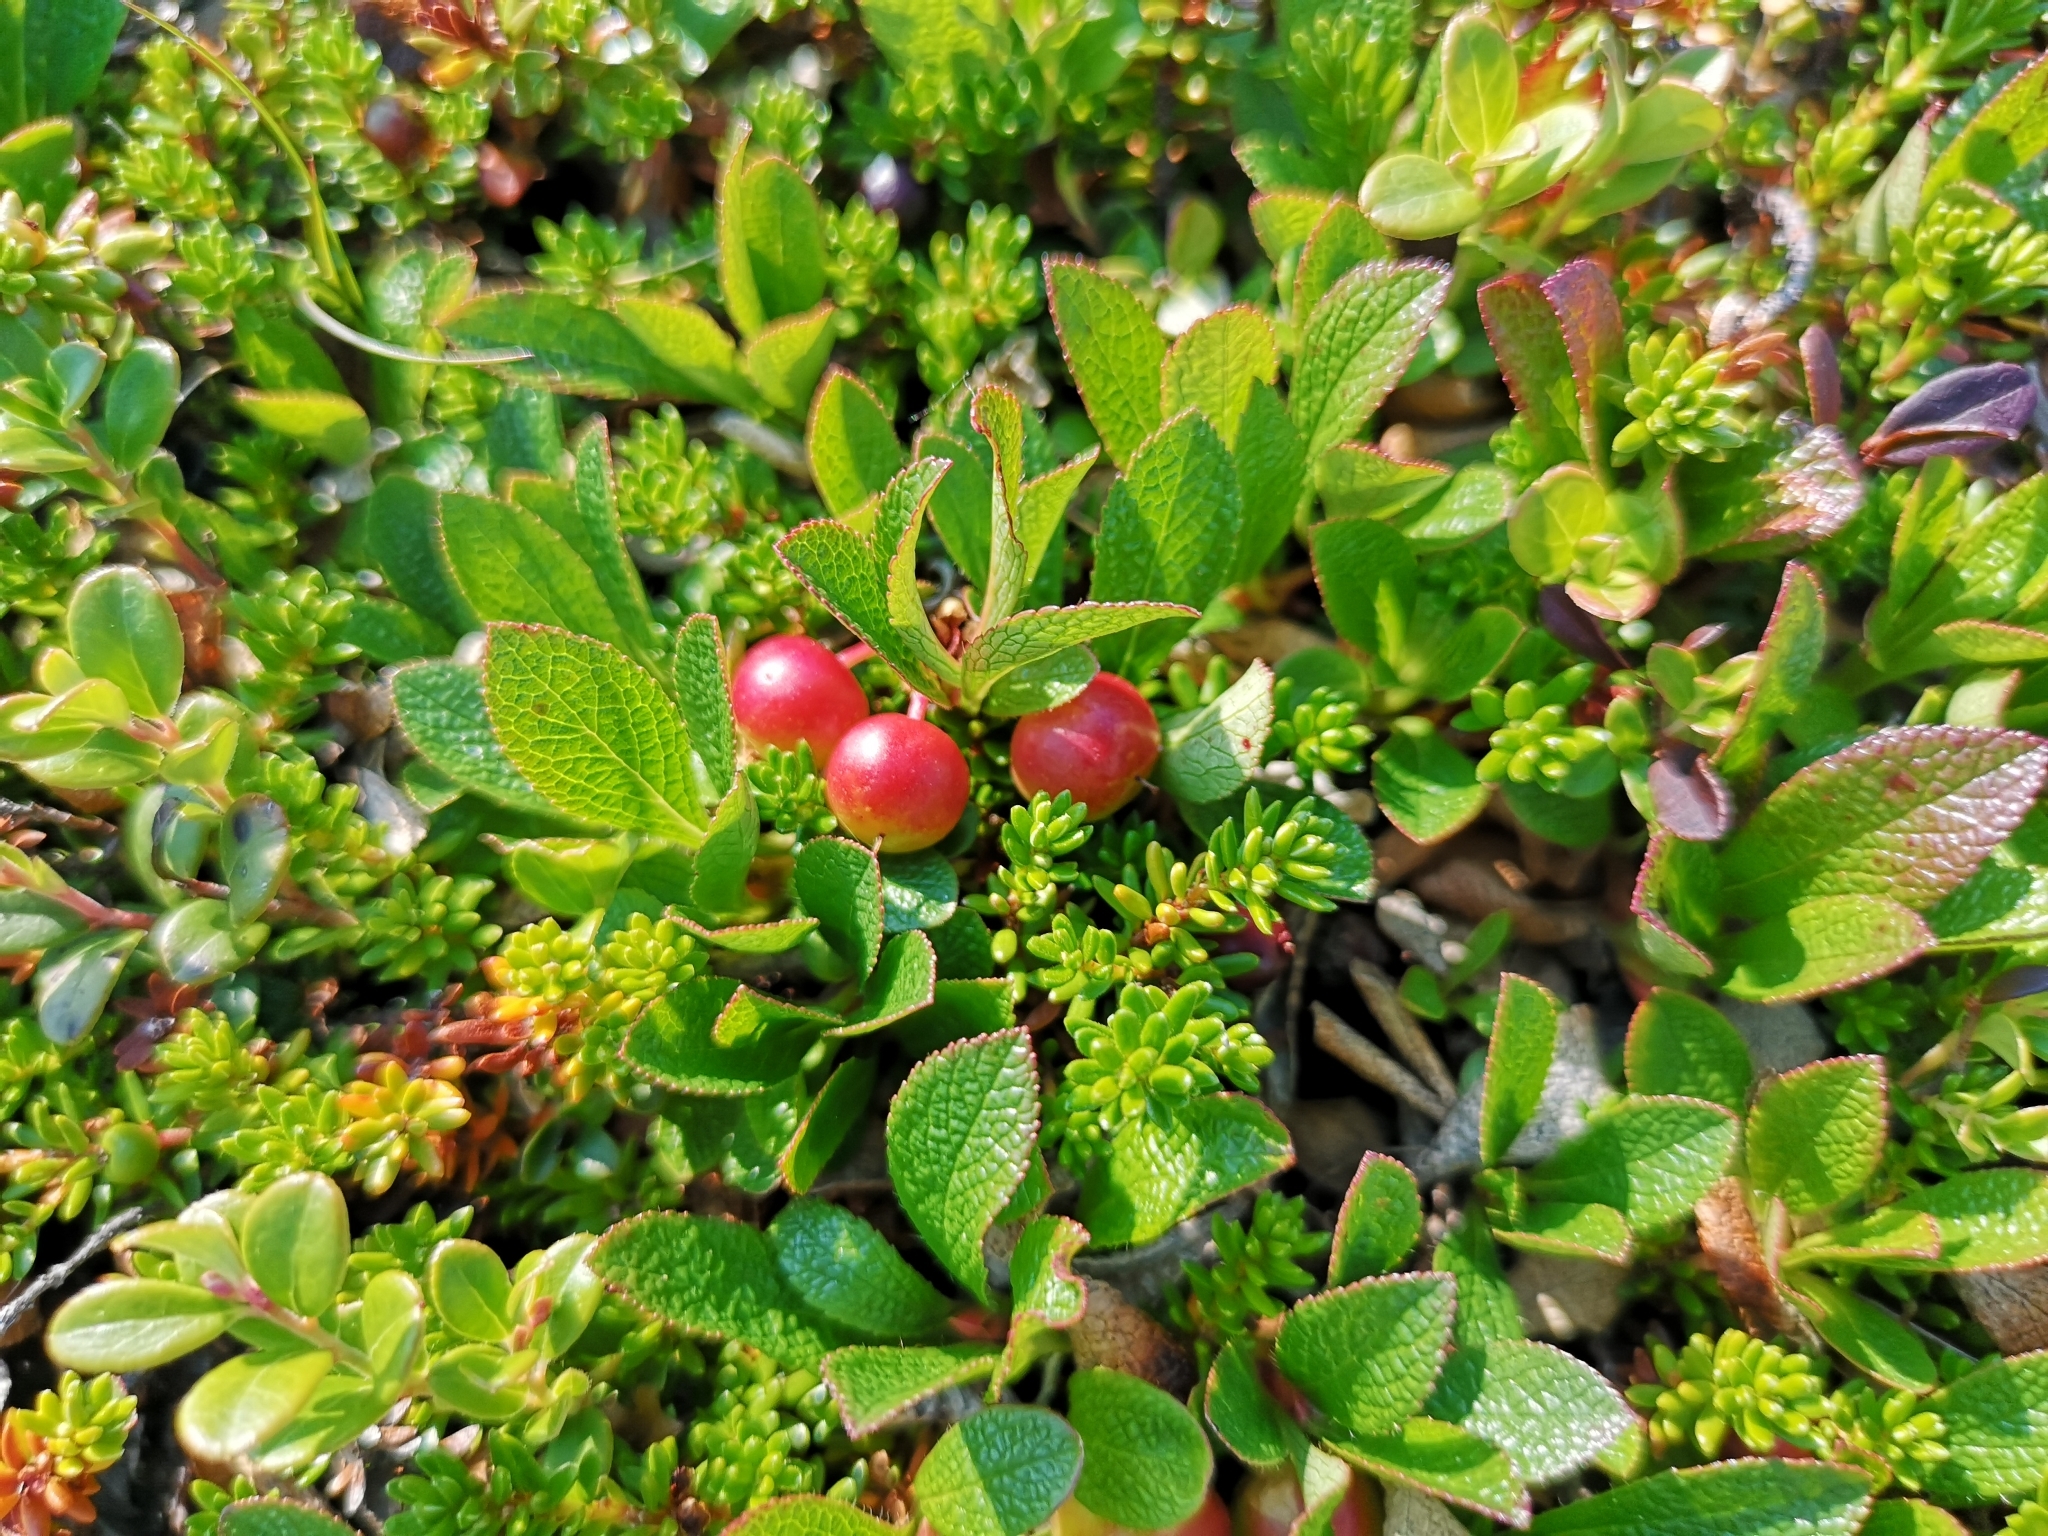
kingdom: Plantae
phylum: Tracheophyta
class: Magnoliopsida
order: Ericales
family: Ericaceae
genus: Arctostaphylos
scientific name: Arctostaphylos alpinus
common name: Alpine bearberry
